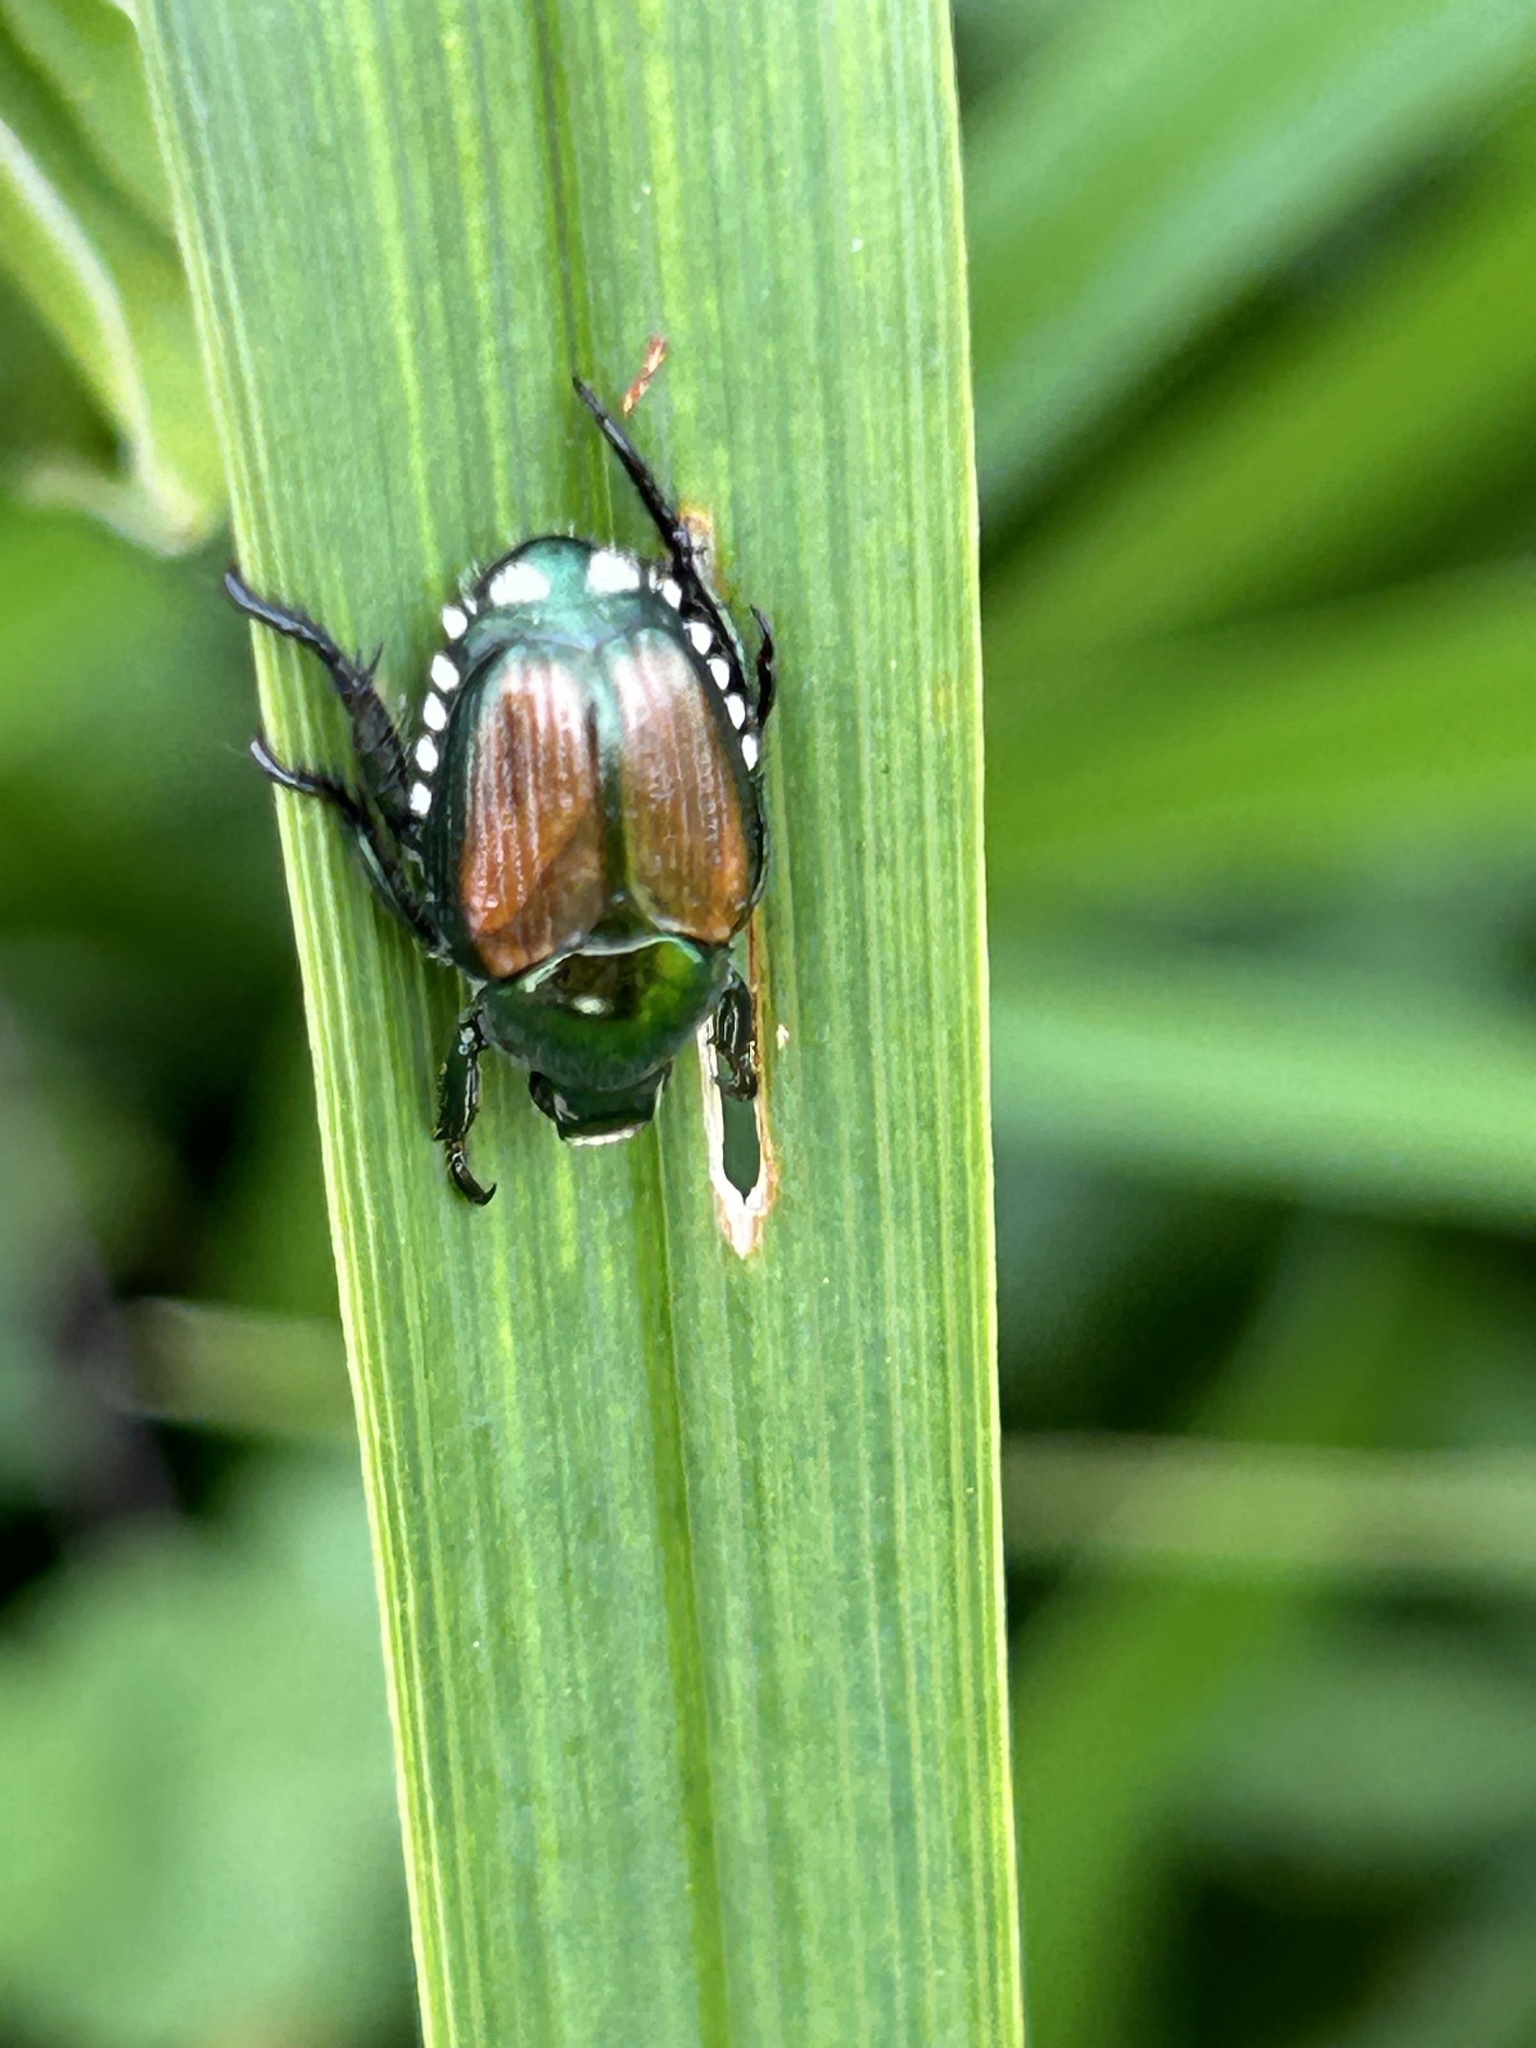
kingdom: Animalia
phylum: Arthropoda
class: Insecta
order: Coleoptera
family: Scarabaeidae
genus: Popillia
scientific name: Popillia japonica
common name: Japanese beetle
